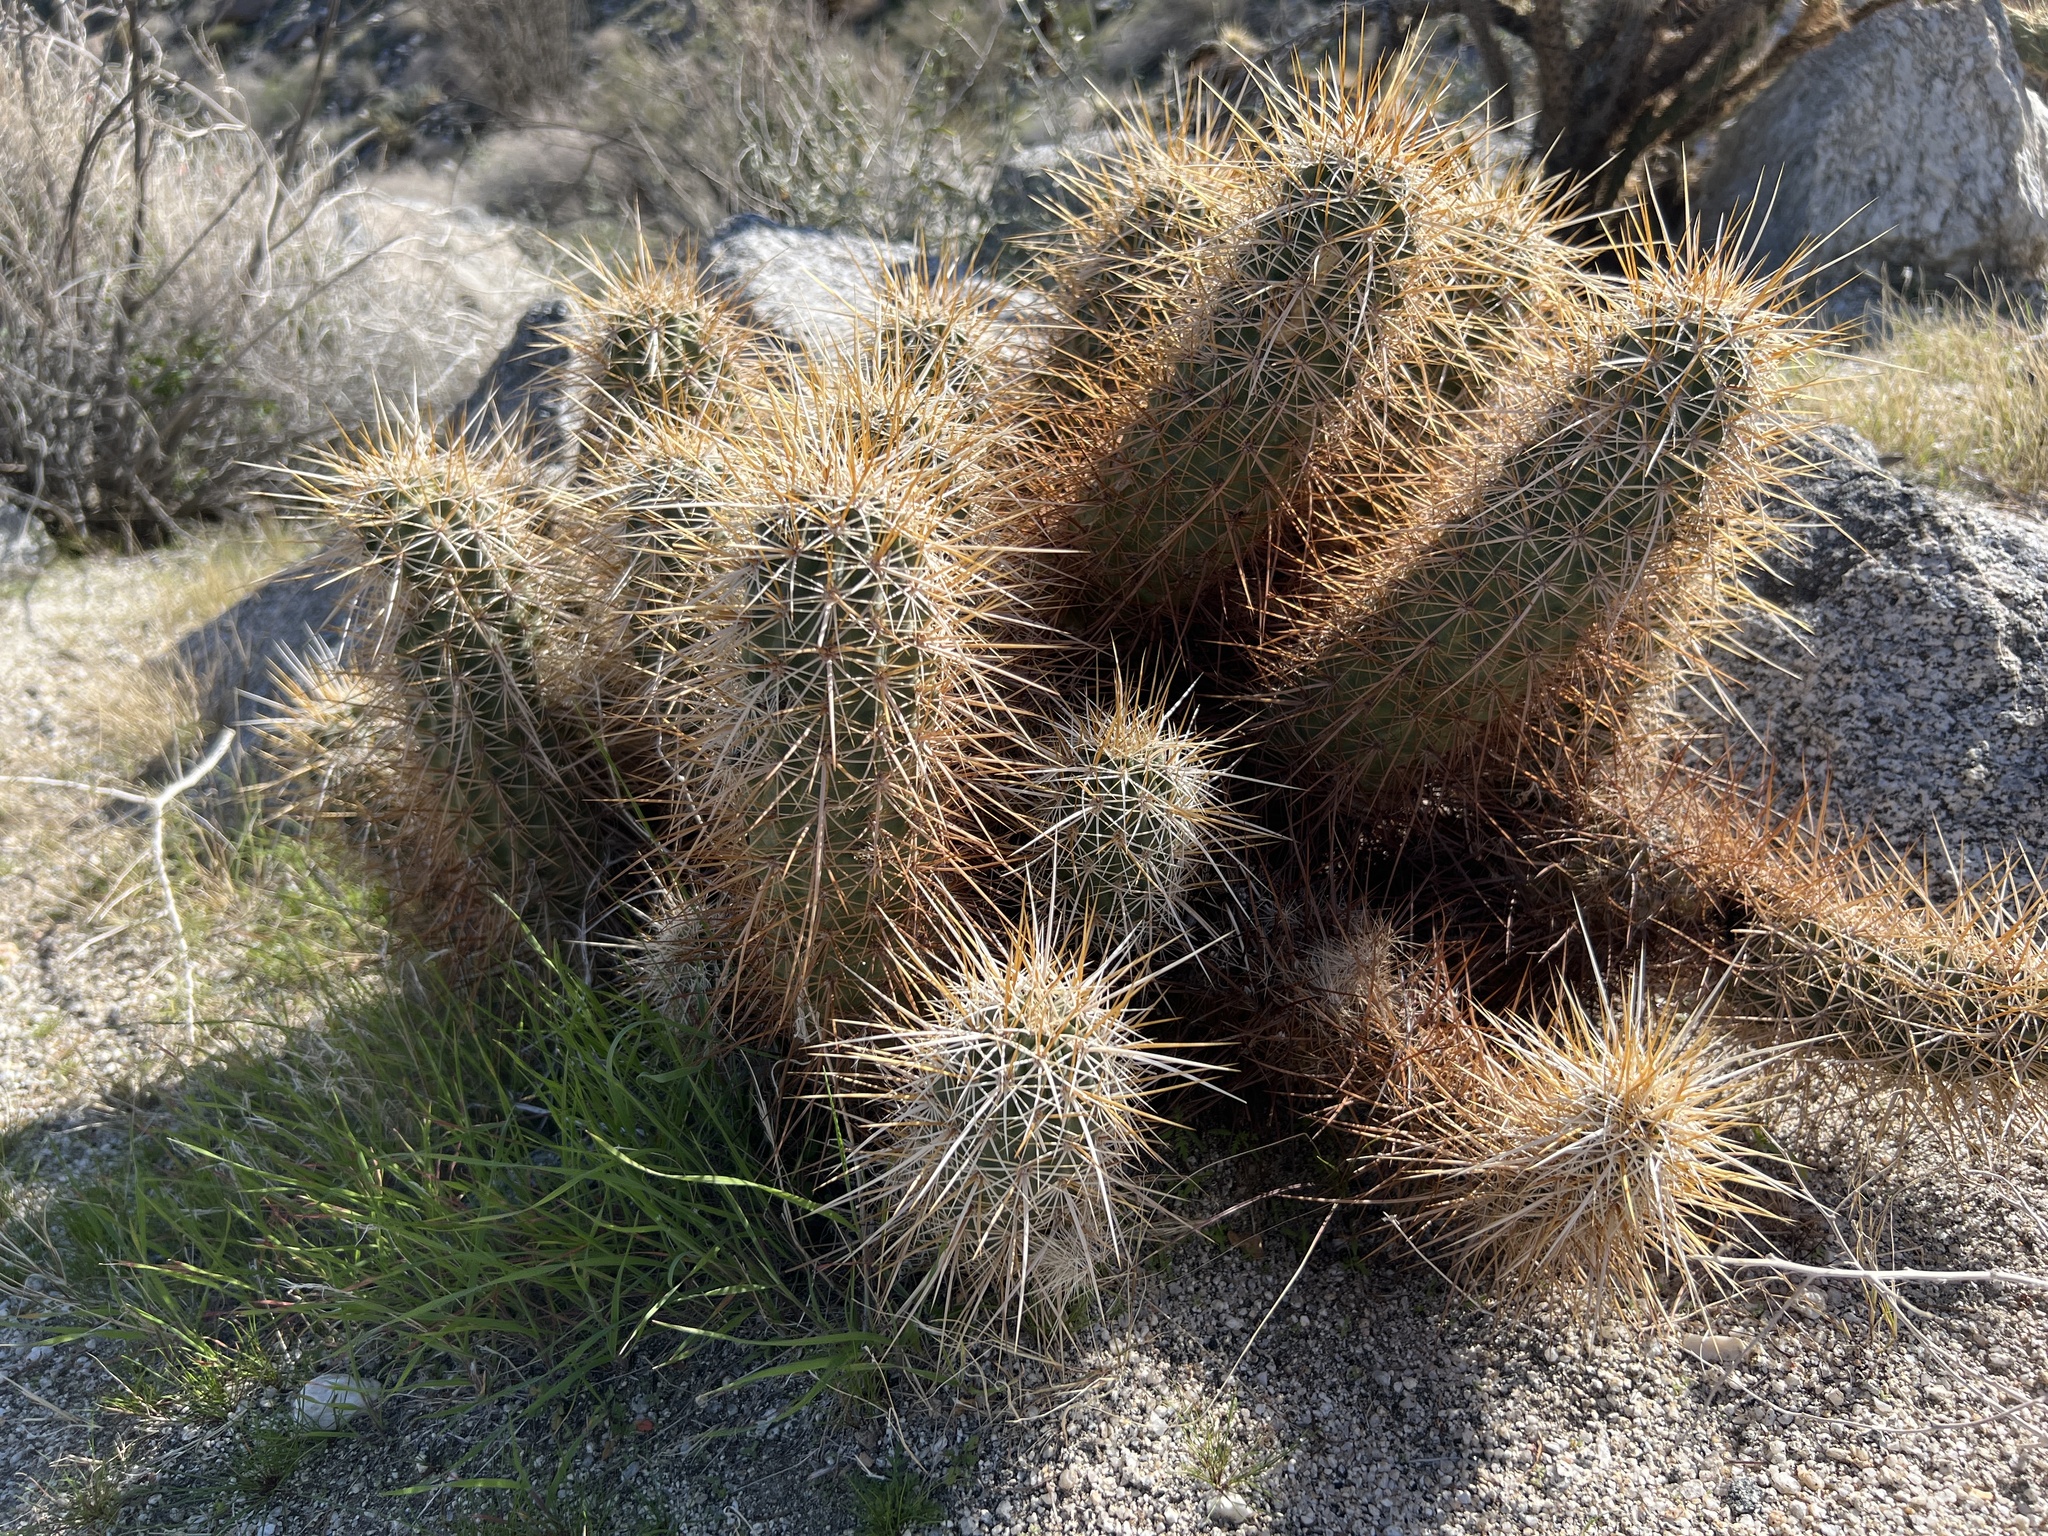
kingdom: Plantae
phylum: Tracheophyta
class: Magnoliopsida
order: Caryophyllales
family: Cactaceae
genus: Echinocereus
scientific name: Echinocereus engelmannii
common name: Engelmann's hedgehog cactus
